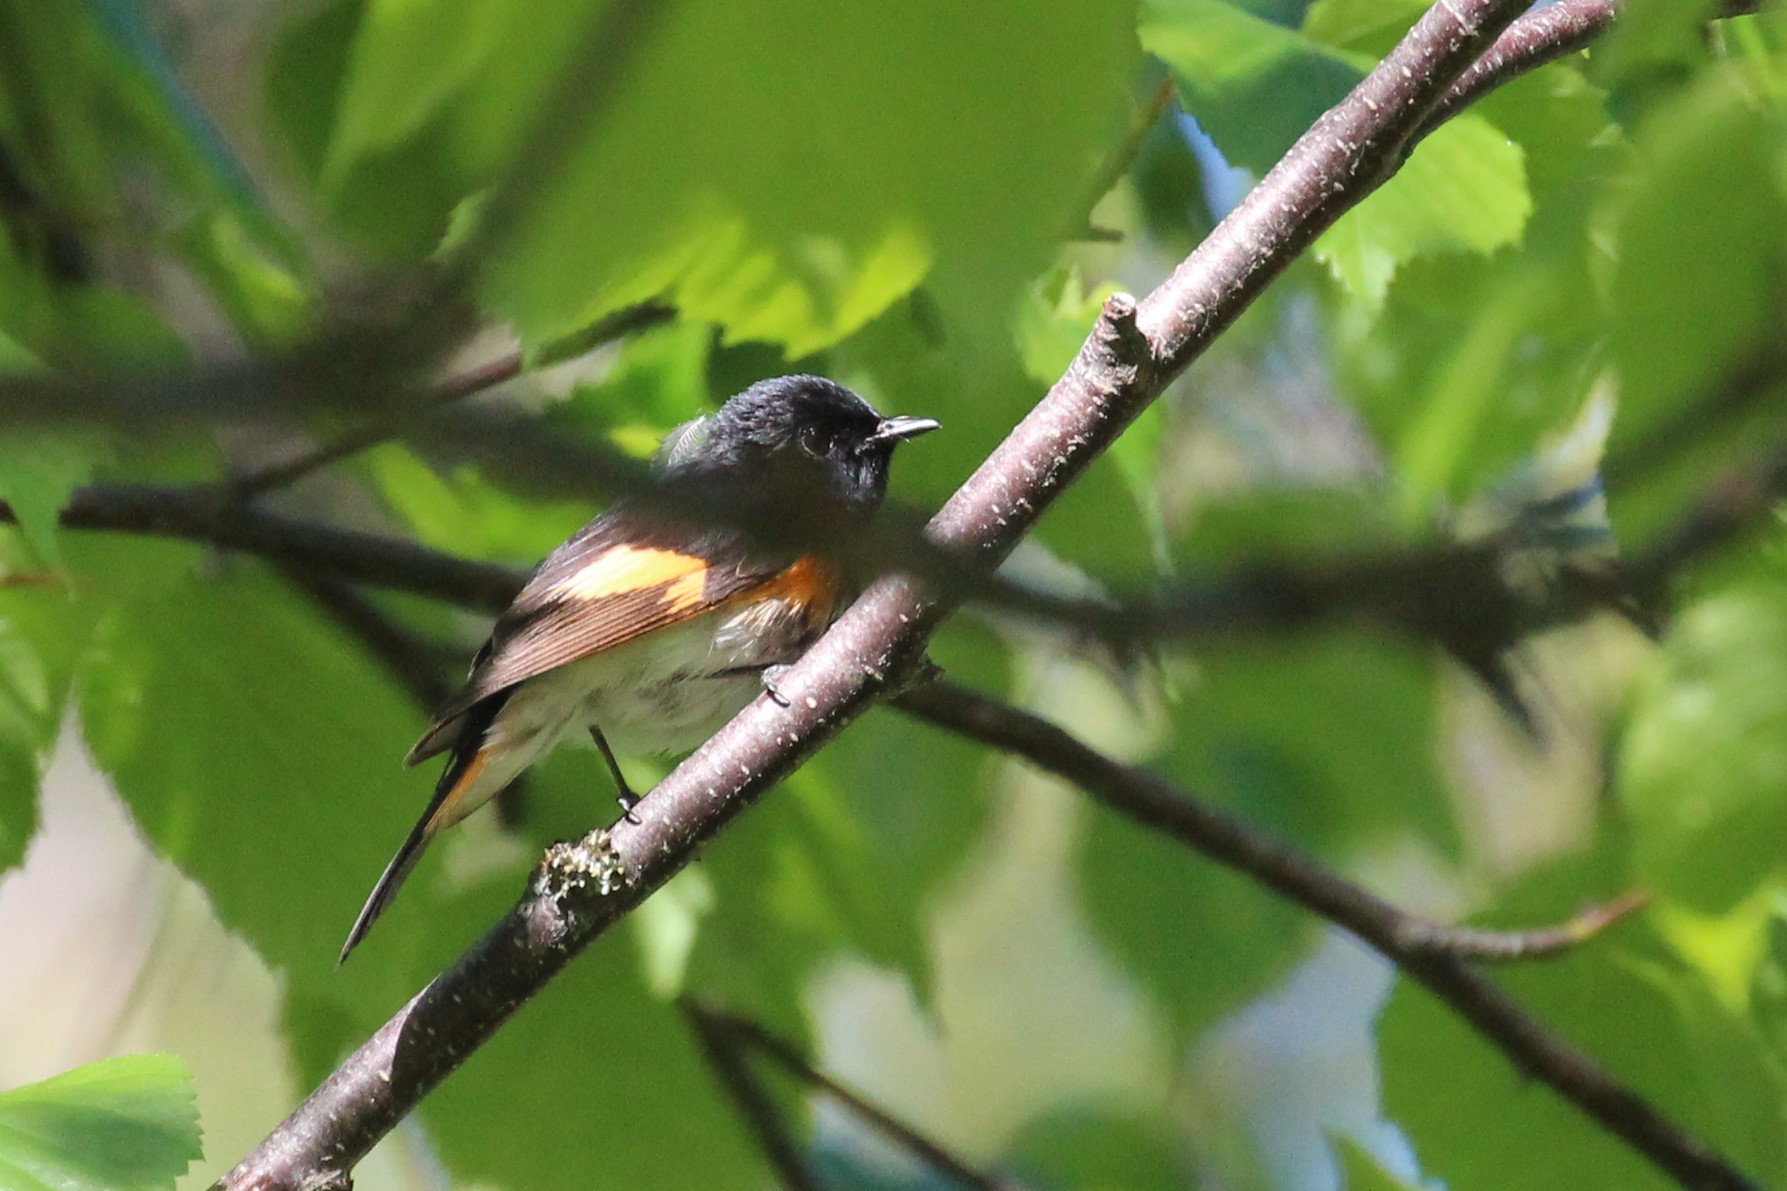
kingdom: Animalia
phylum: Chordata
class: Aves
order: Passeriformes
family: Parulidae
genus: Setophaga
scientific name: Setophaga ruticilla
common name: American redstart
